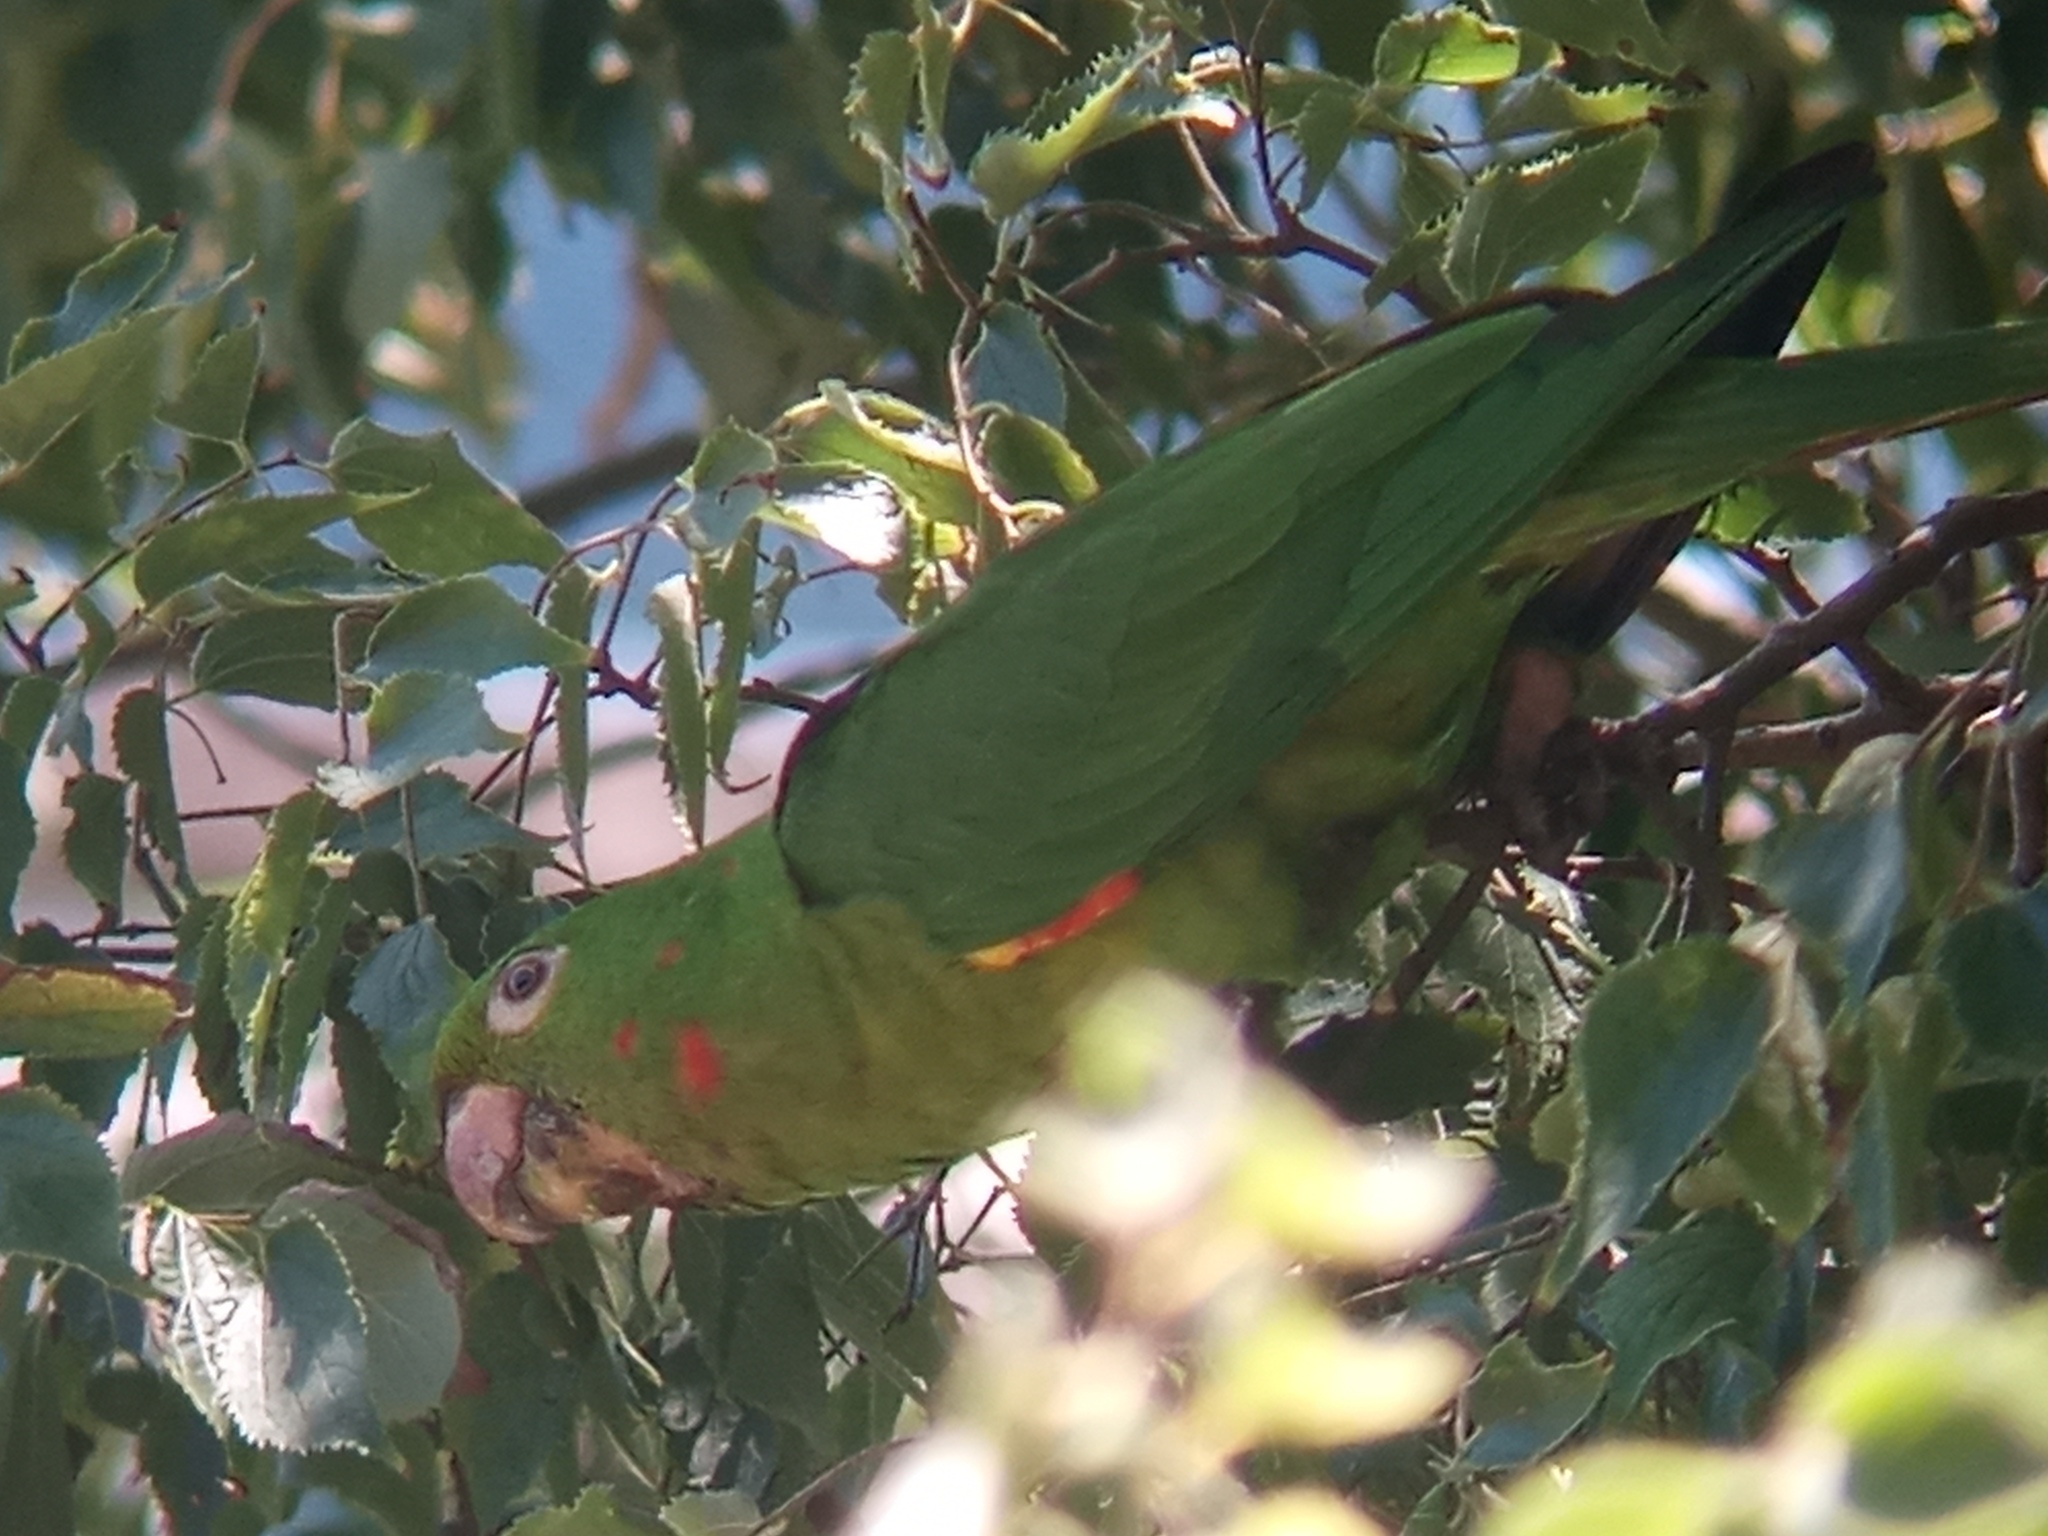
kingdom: Animalia
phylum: Chordata
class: Aves
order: Psittaciformes
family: Psittacidae
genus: Aratinga
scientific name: Aratinga leucophthalma
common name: White-eyed parakeet
